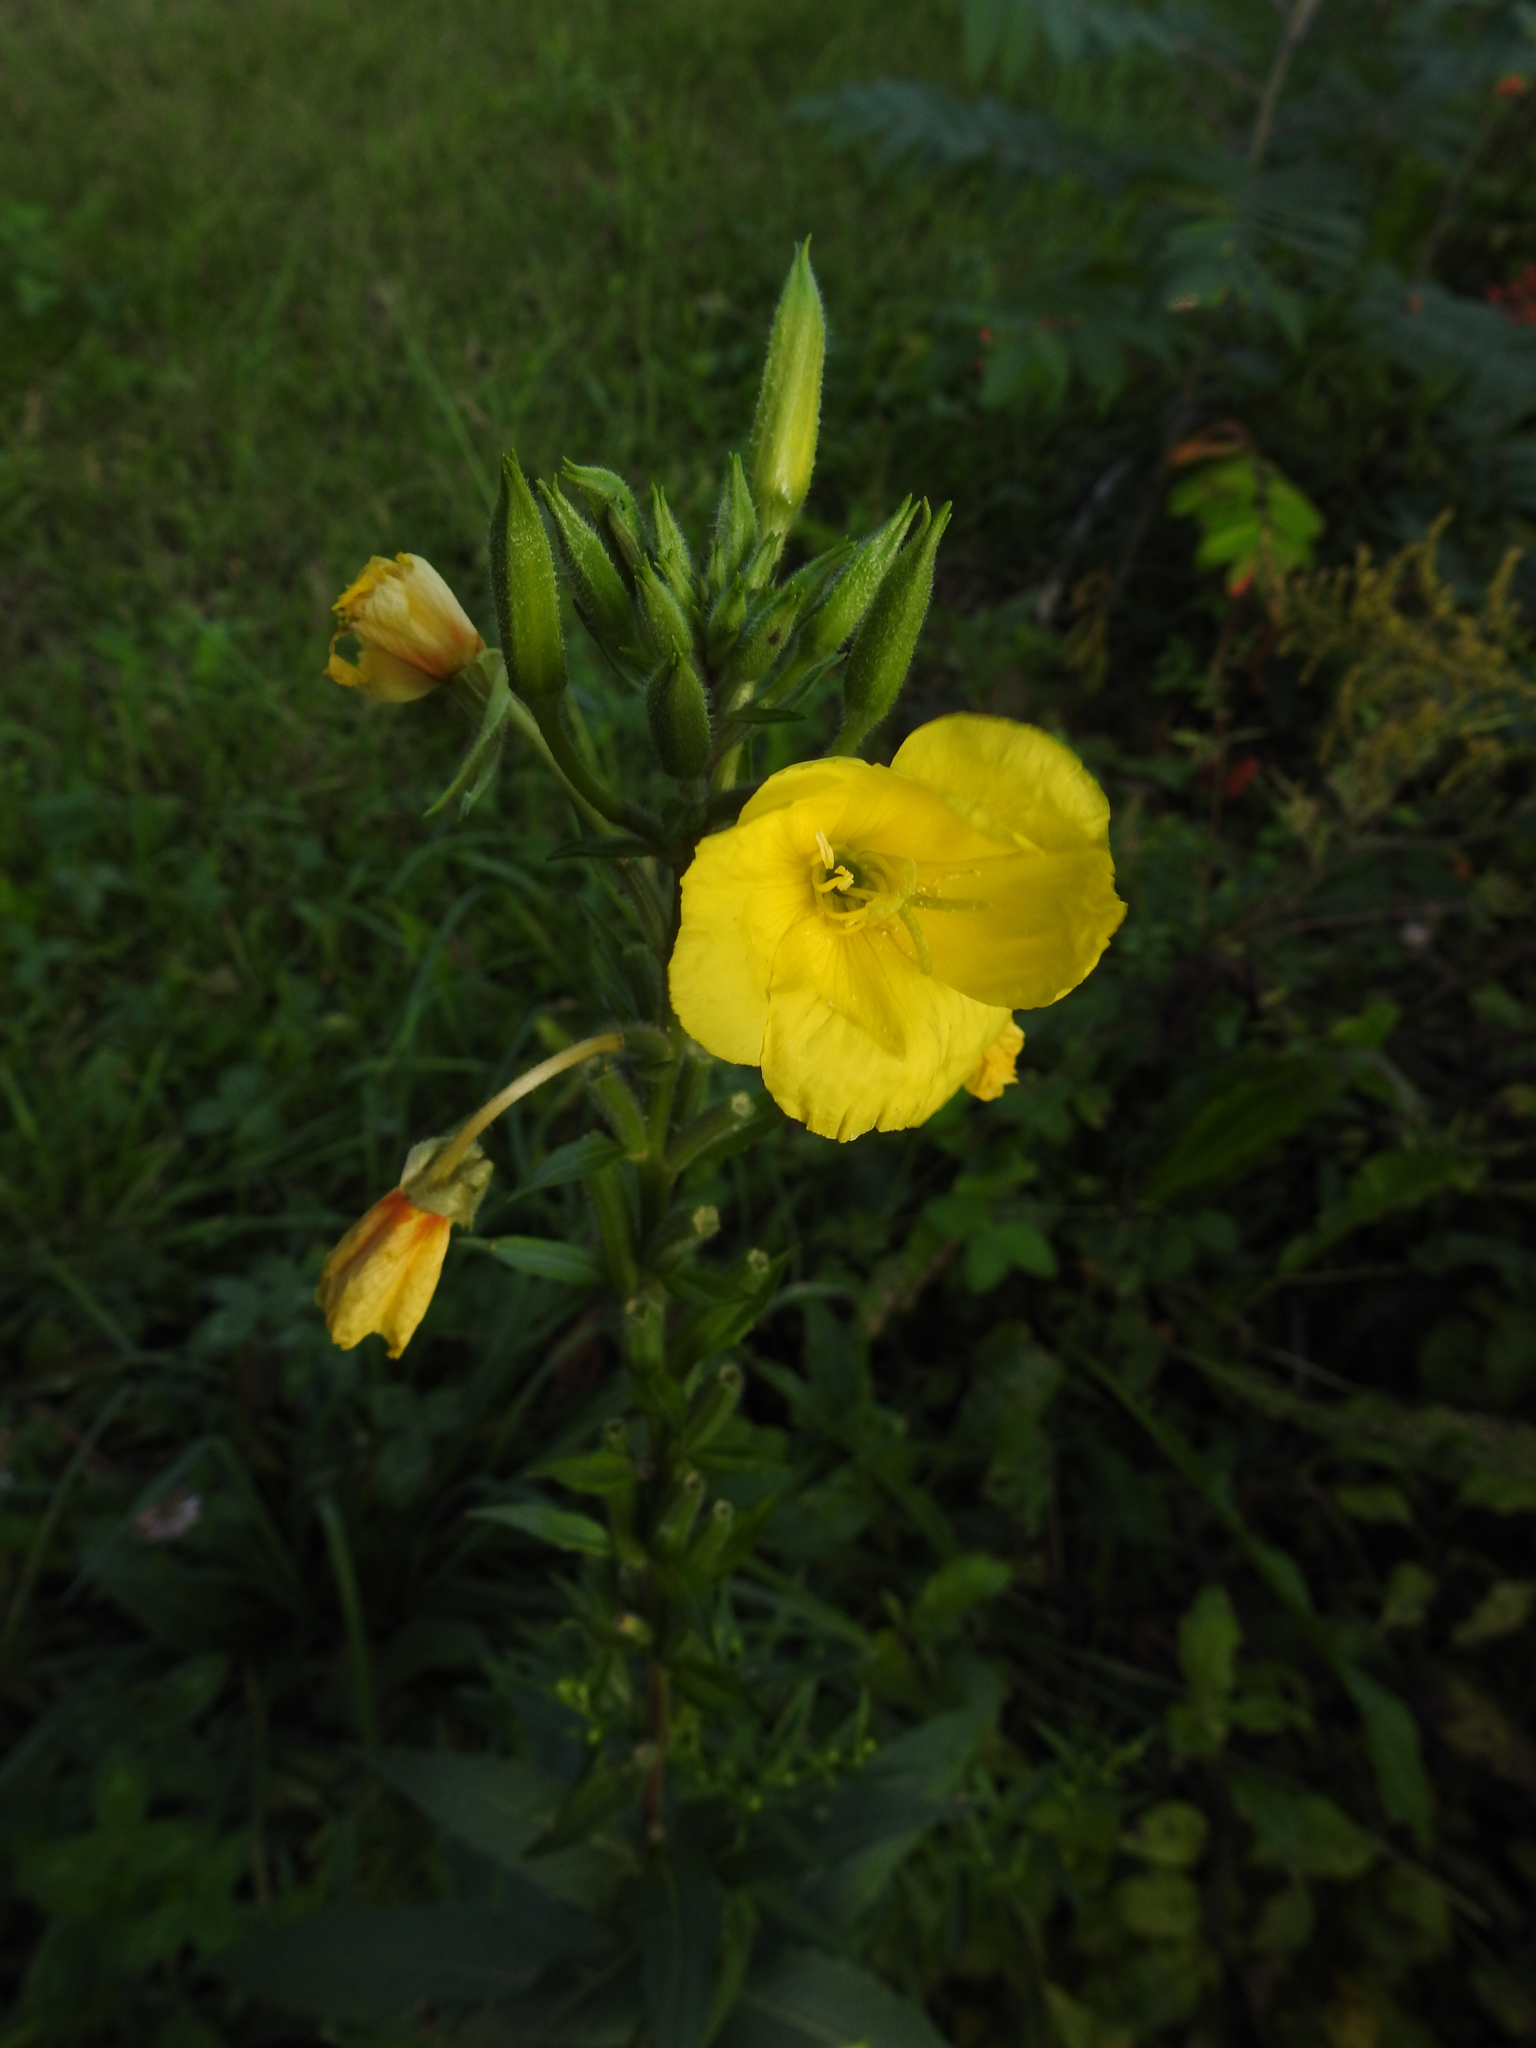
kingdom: Plantae
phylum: Tracheophyta
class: Magnoliopsida
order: Myrtales
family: Onagraceae
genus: Oenothera
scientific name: Oenothera biennis
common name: Common evening-primrose
